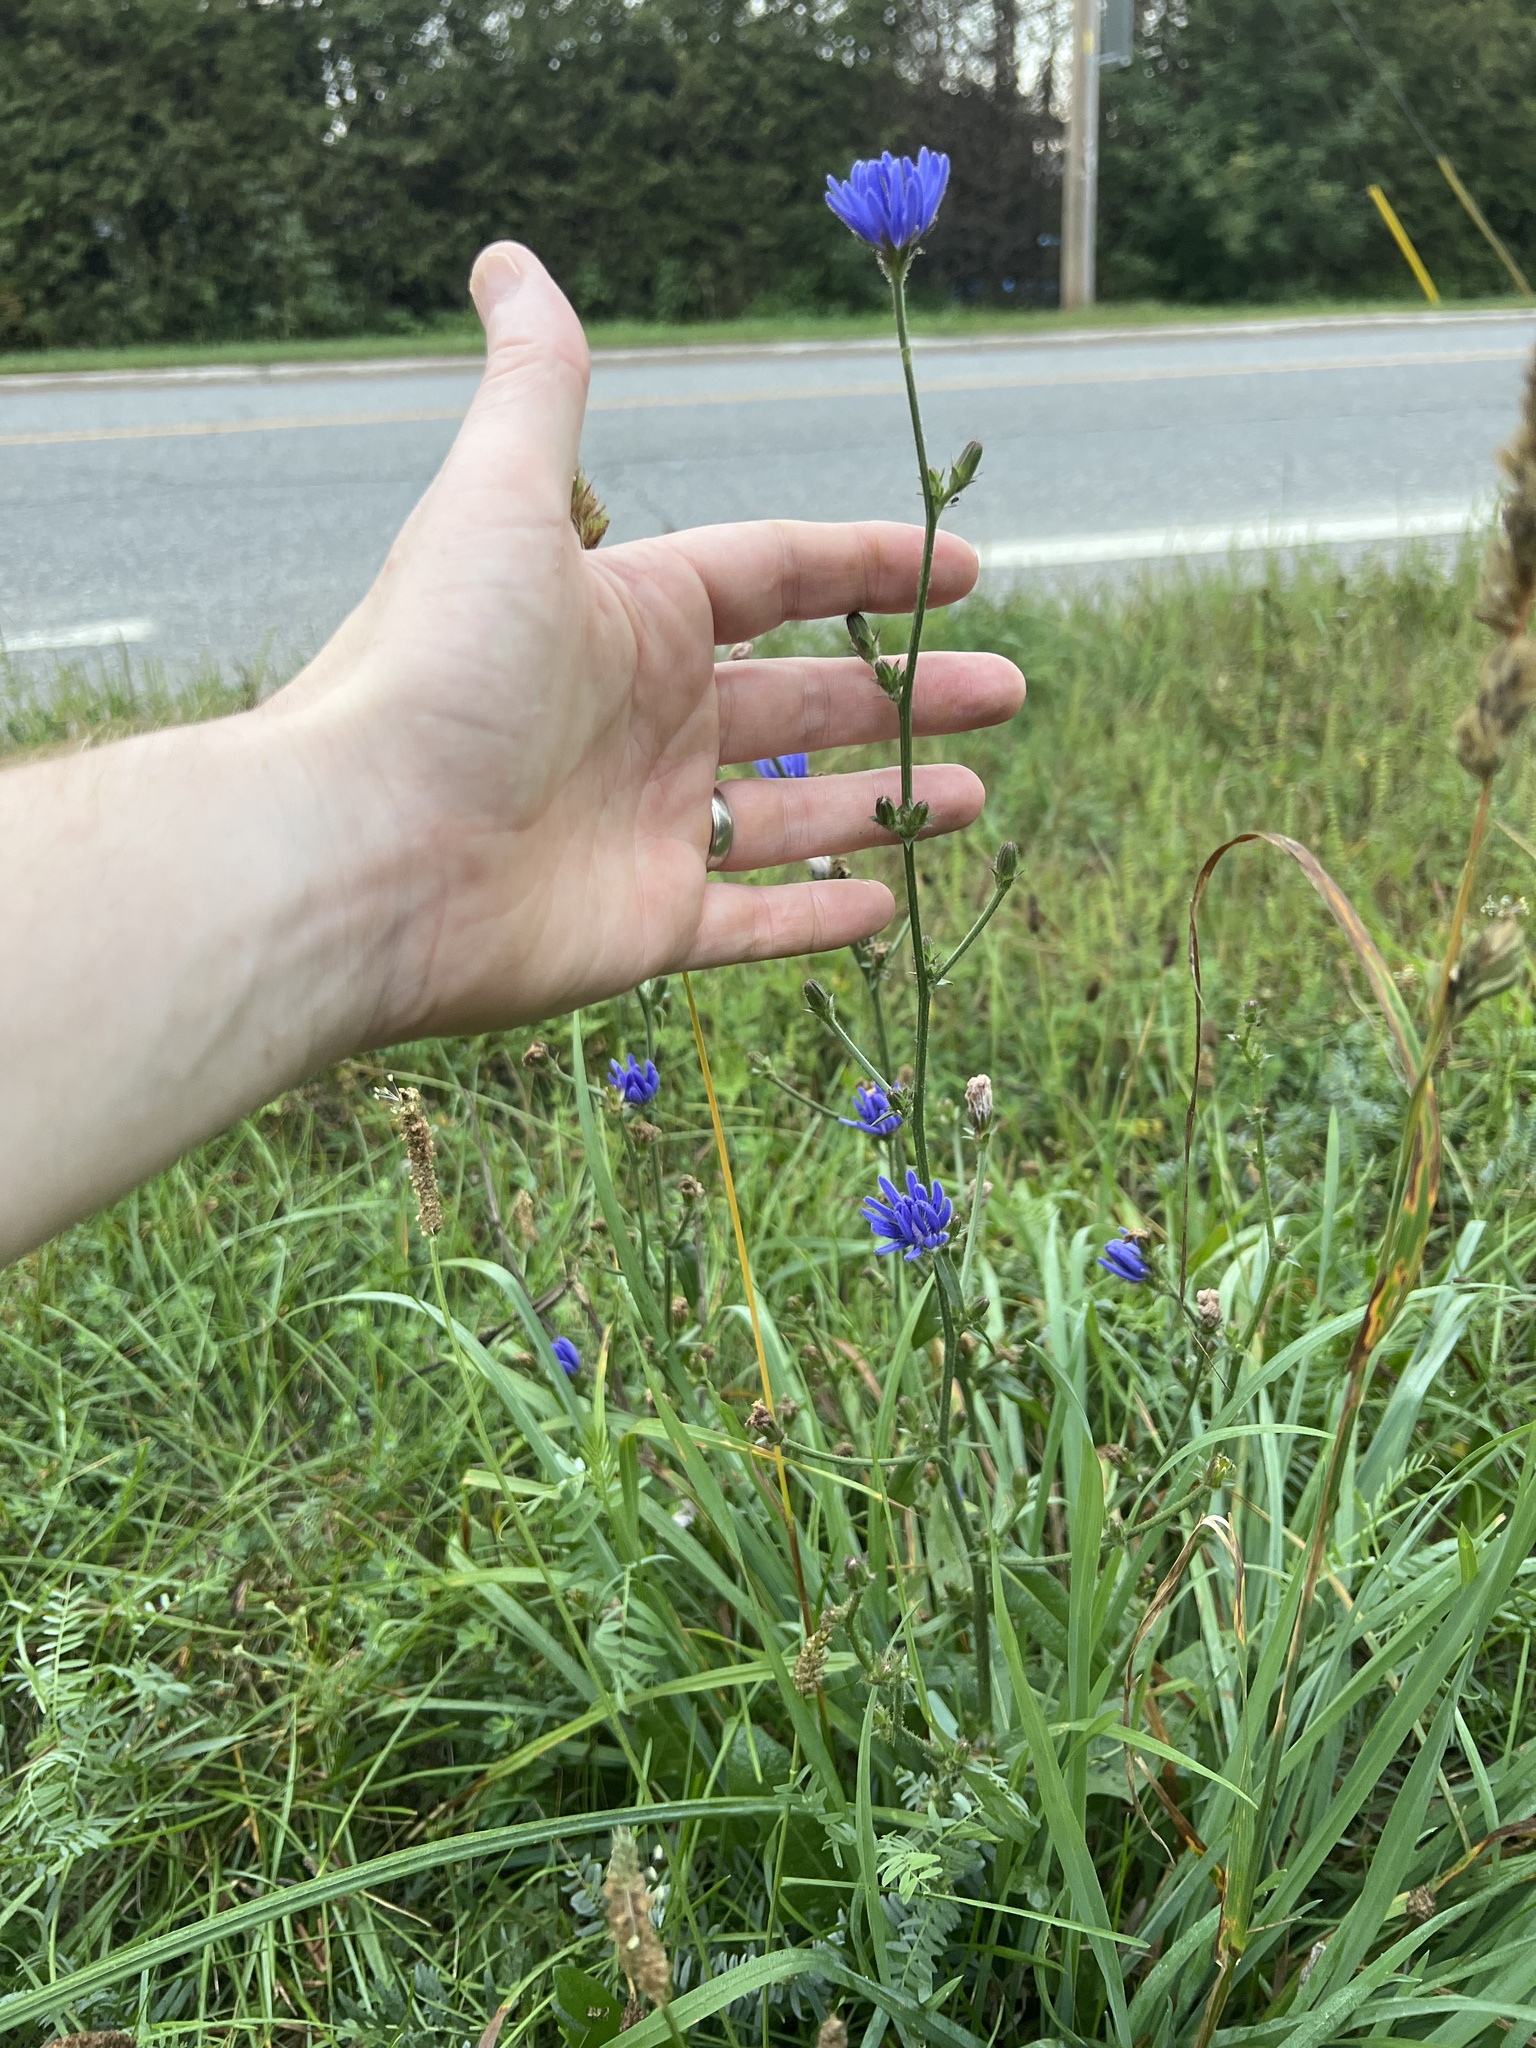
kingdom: Plantae
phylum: Tracheophyta
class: Magnoliopsida
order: Asterales
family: Asteraceae
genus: Cichorium
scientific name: Cichorium intybus
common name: Chicory
